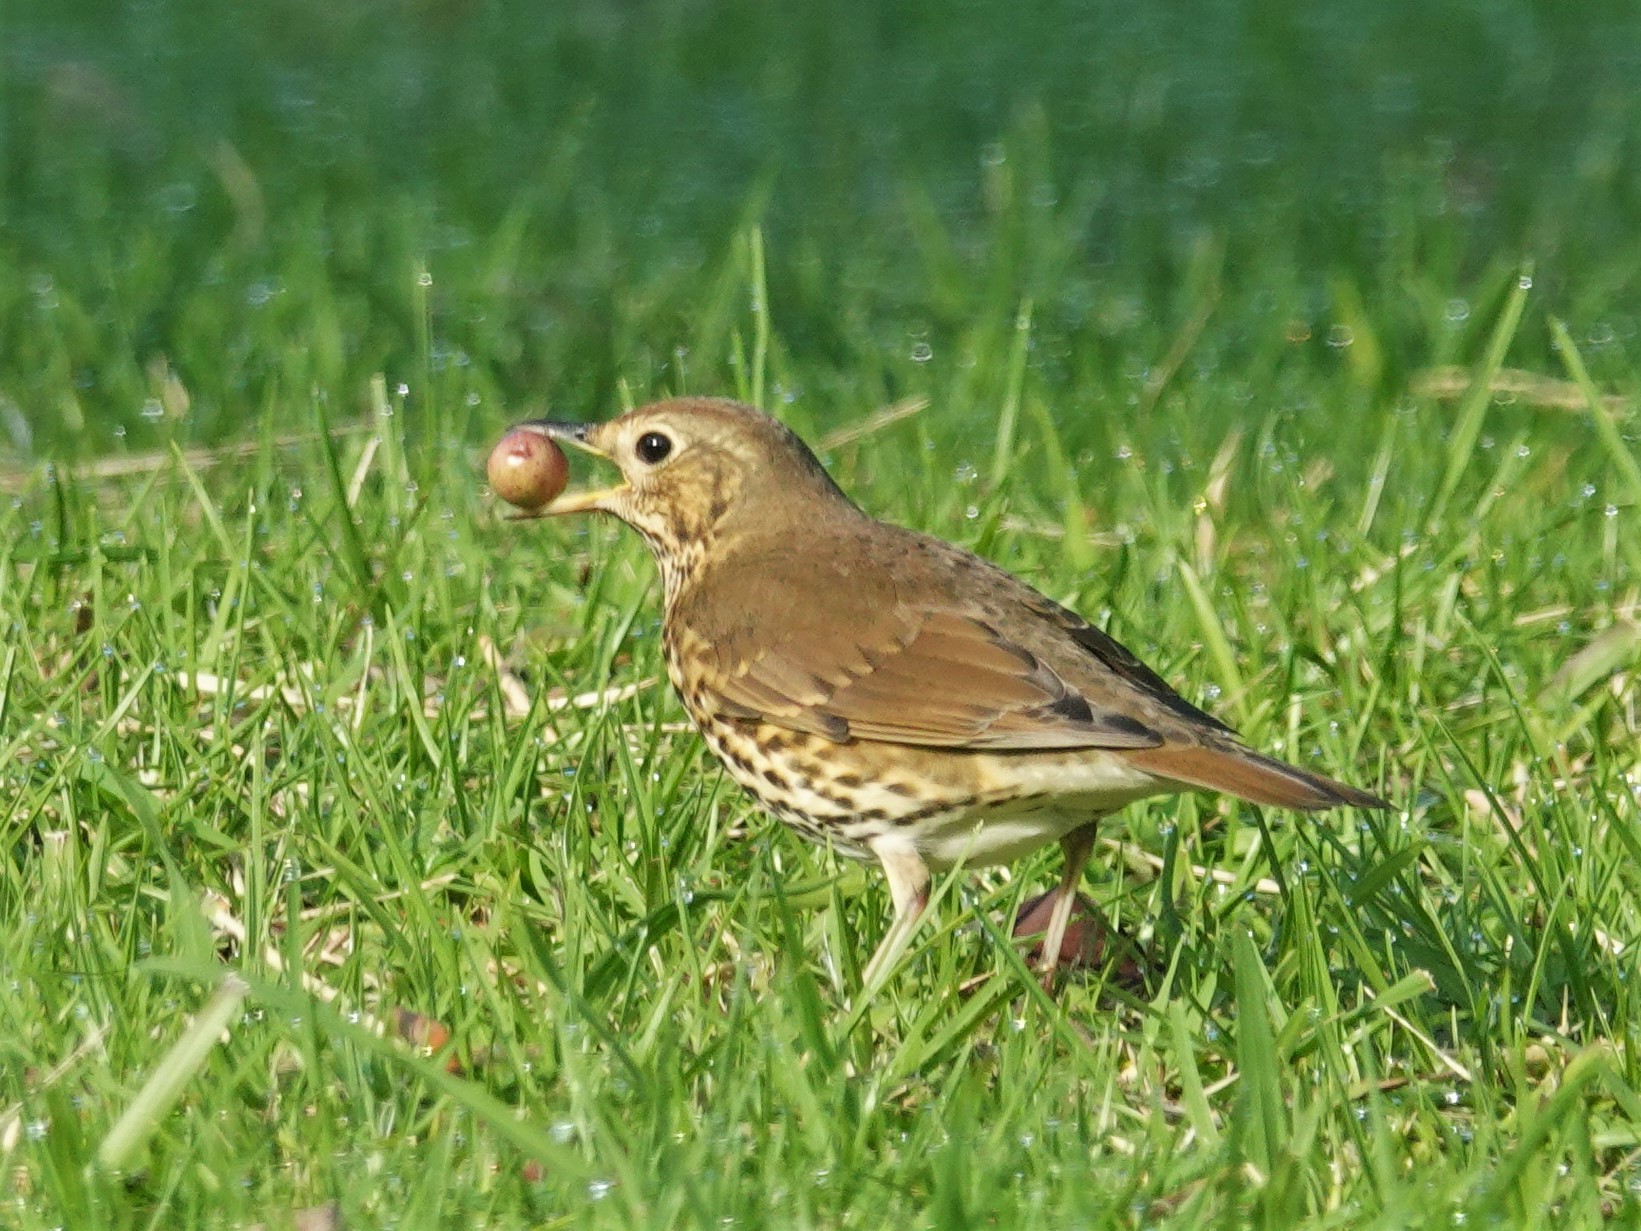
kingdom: Animalia
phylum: Chordata
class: Aves
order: Passeriformes
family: Turdidae
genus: Turdus
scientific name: Turdus philomelos
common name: Song thrush
